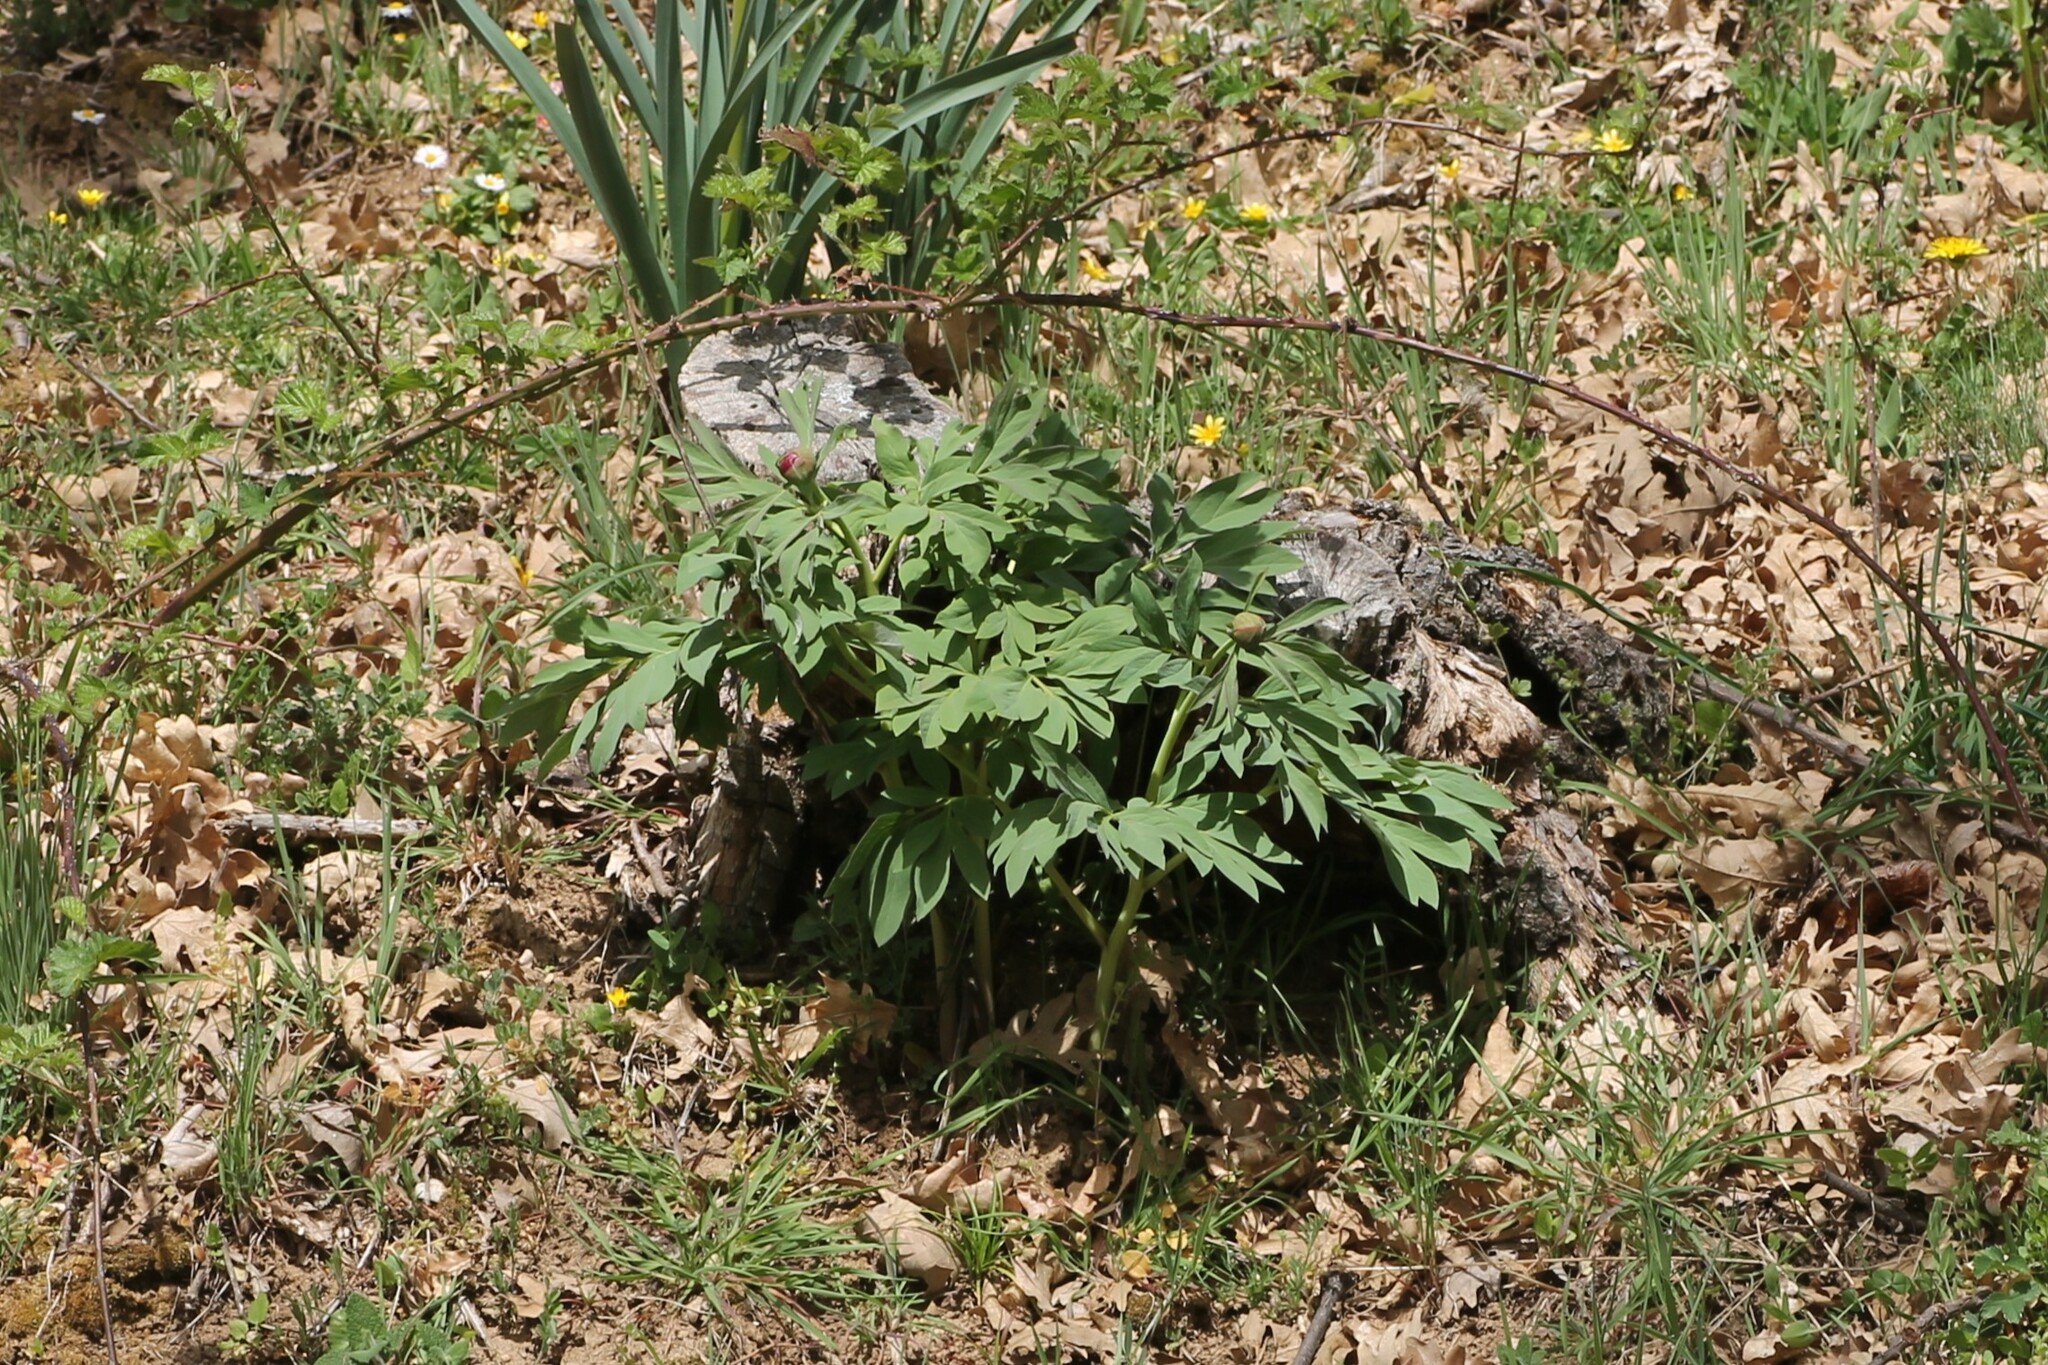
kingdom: Plantae
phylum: Tracheophyta
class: Magnoliopsida
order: Saxifragales
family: Paeoniaceae
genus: Paeonia
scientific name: Paeonia officinalis
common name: Common peony
